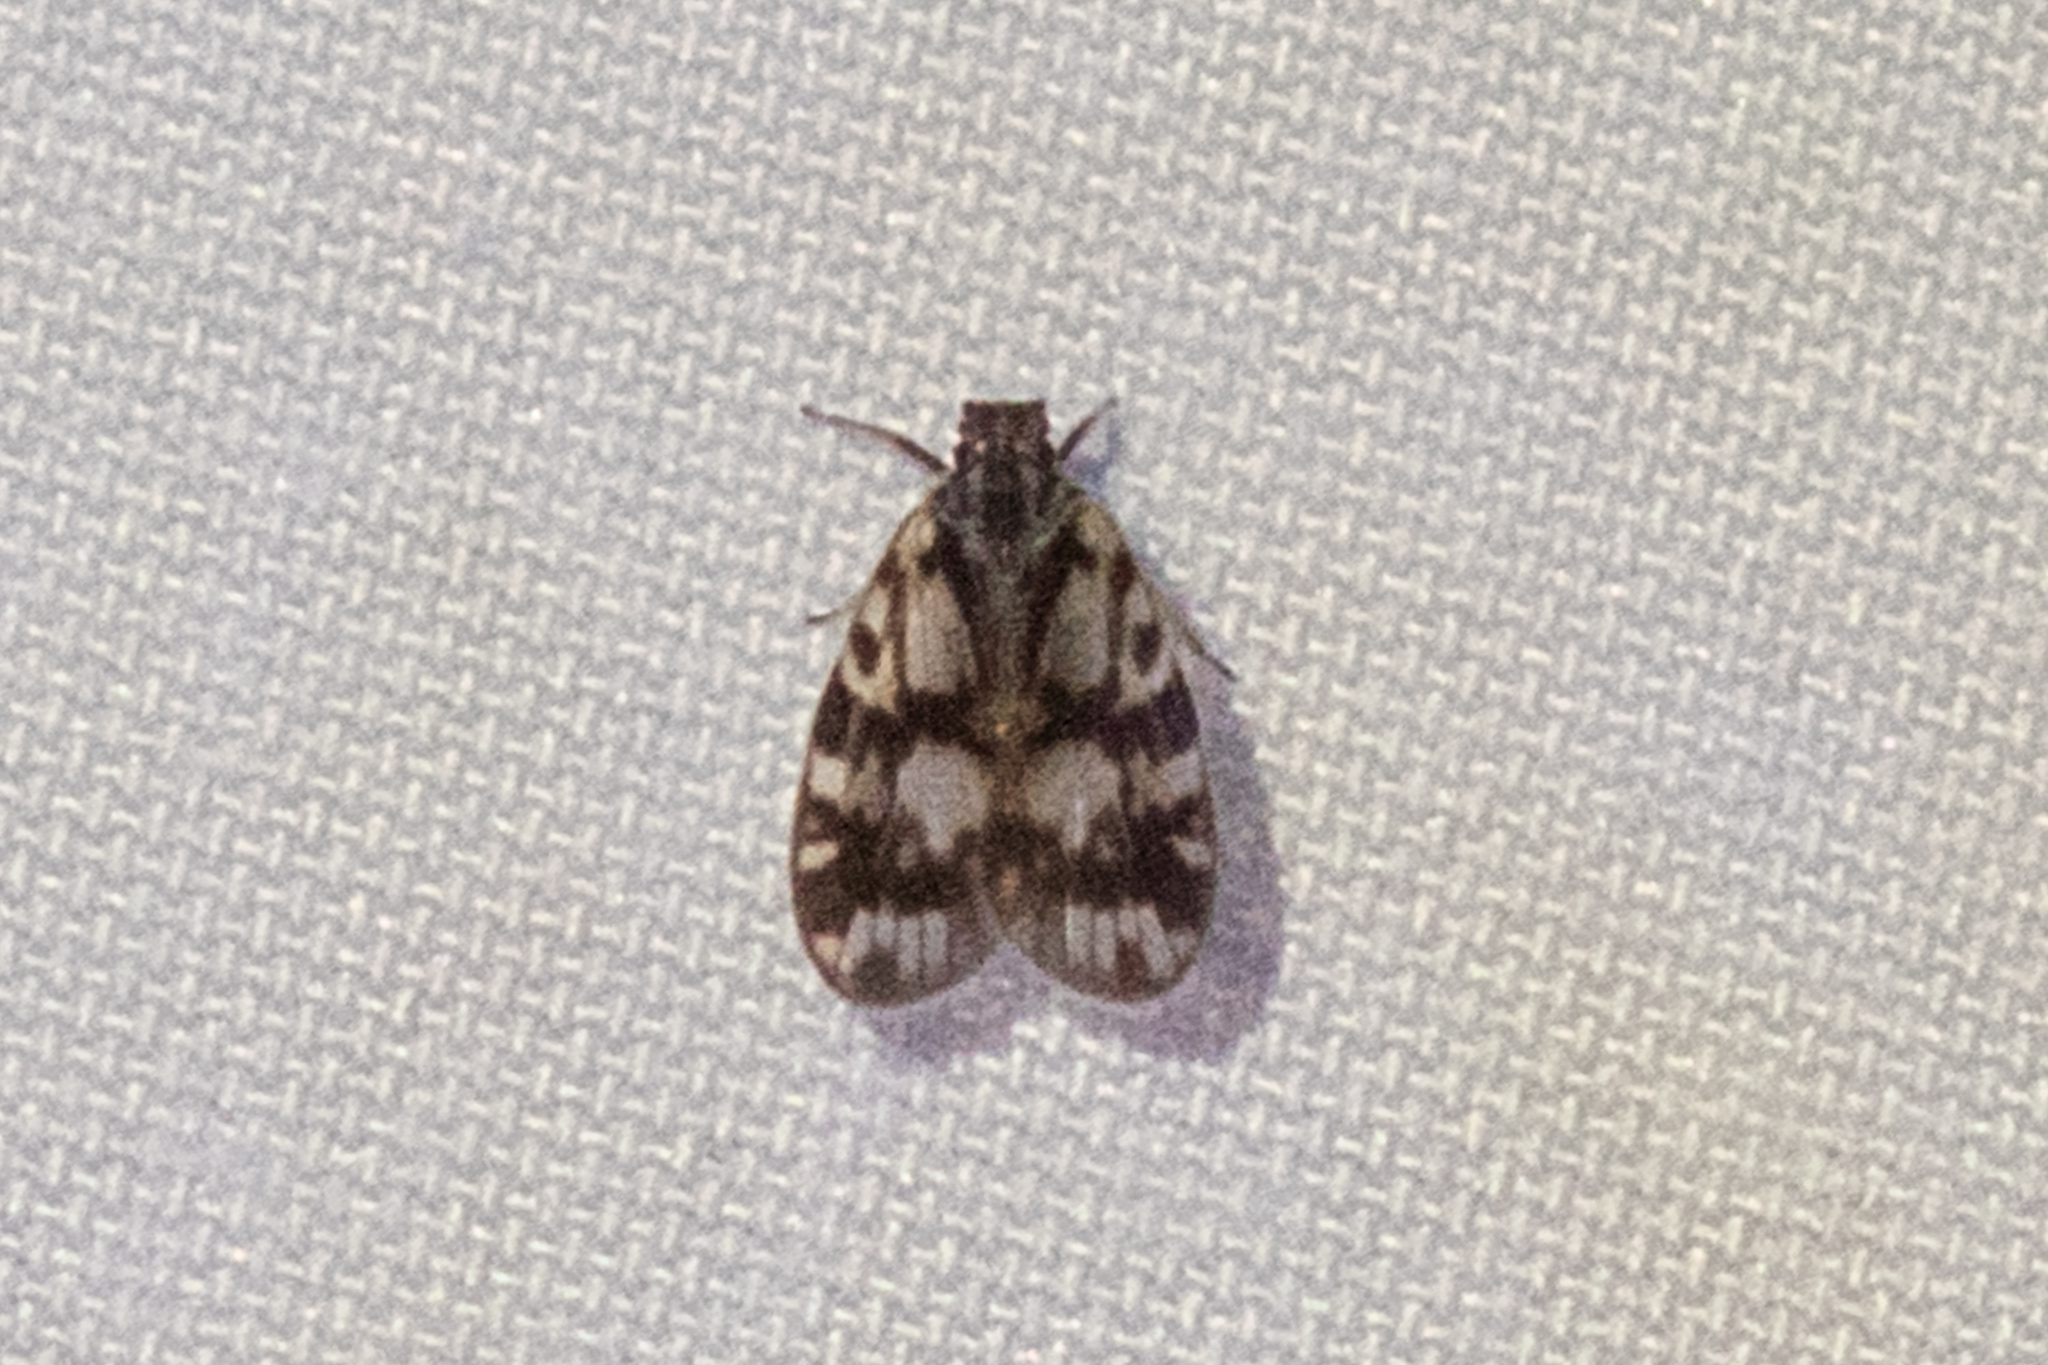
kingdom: Animalia
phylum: Arthropoda
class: Insecta
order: Hemiptera
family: Cixiidae
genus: Bothriocera
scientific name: Bothriocera cognita
